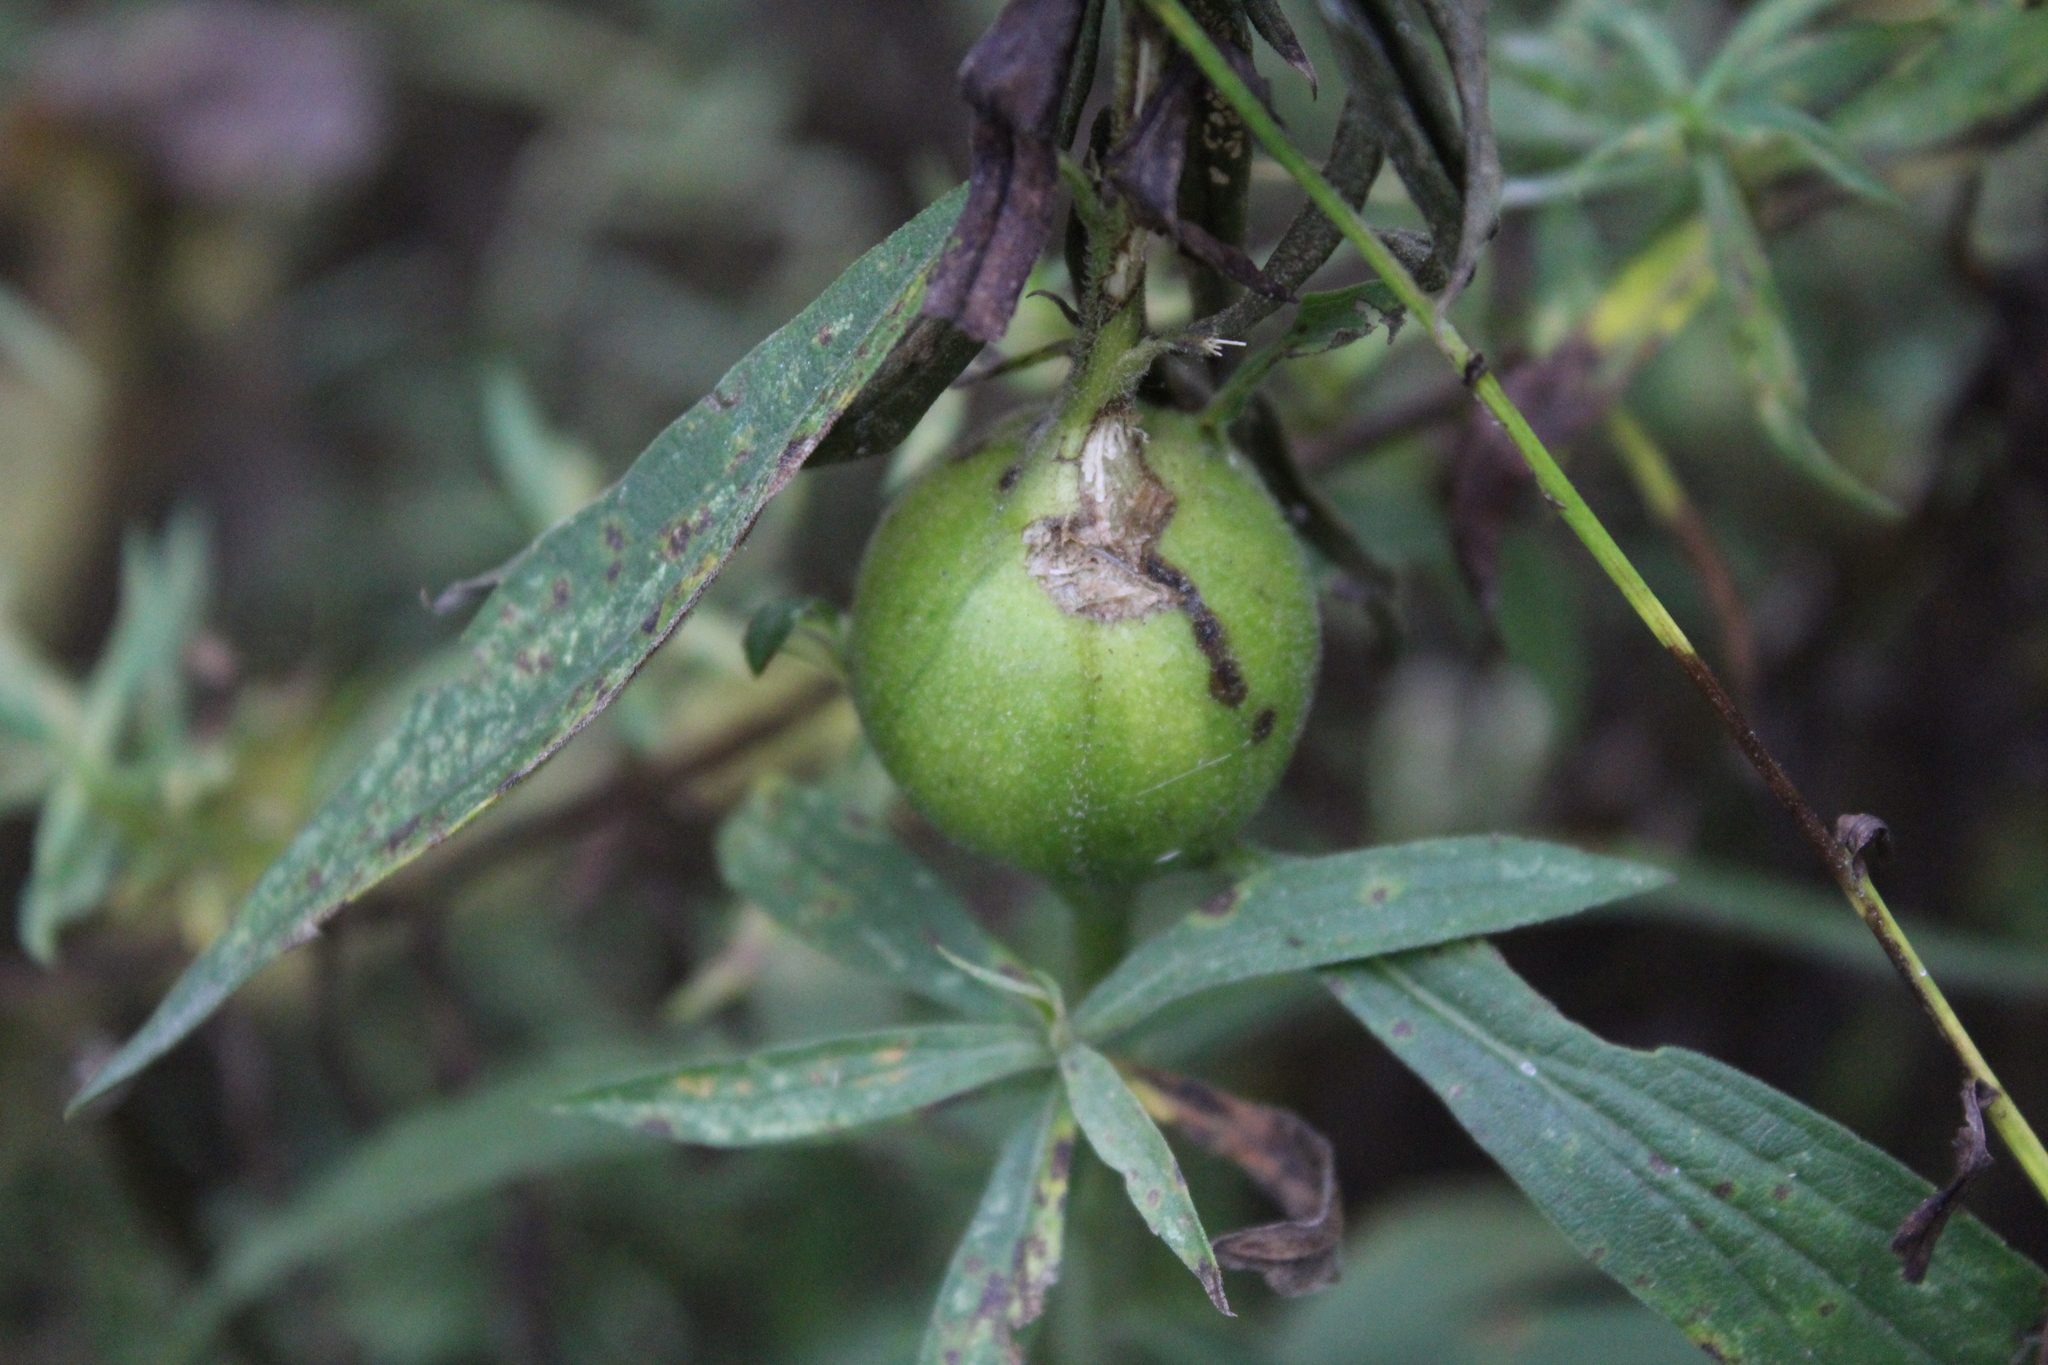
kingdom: Animalia
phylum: Arthropoda
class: Insecta
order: Diptera
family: Tephritidae
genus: Eurosta
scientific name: Eurosta solidaginis
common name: Goldenrod gall fly
